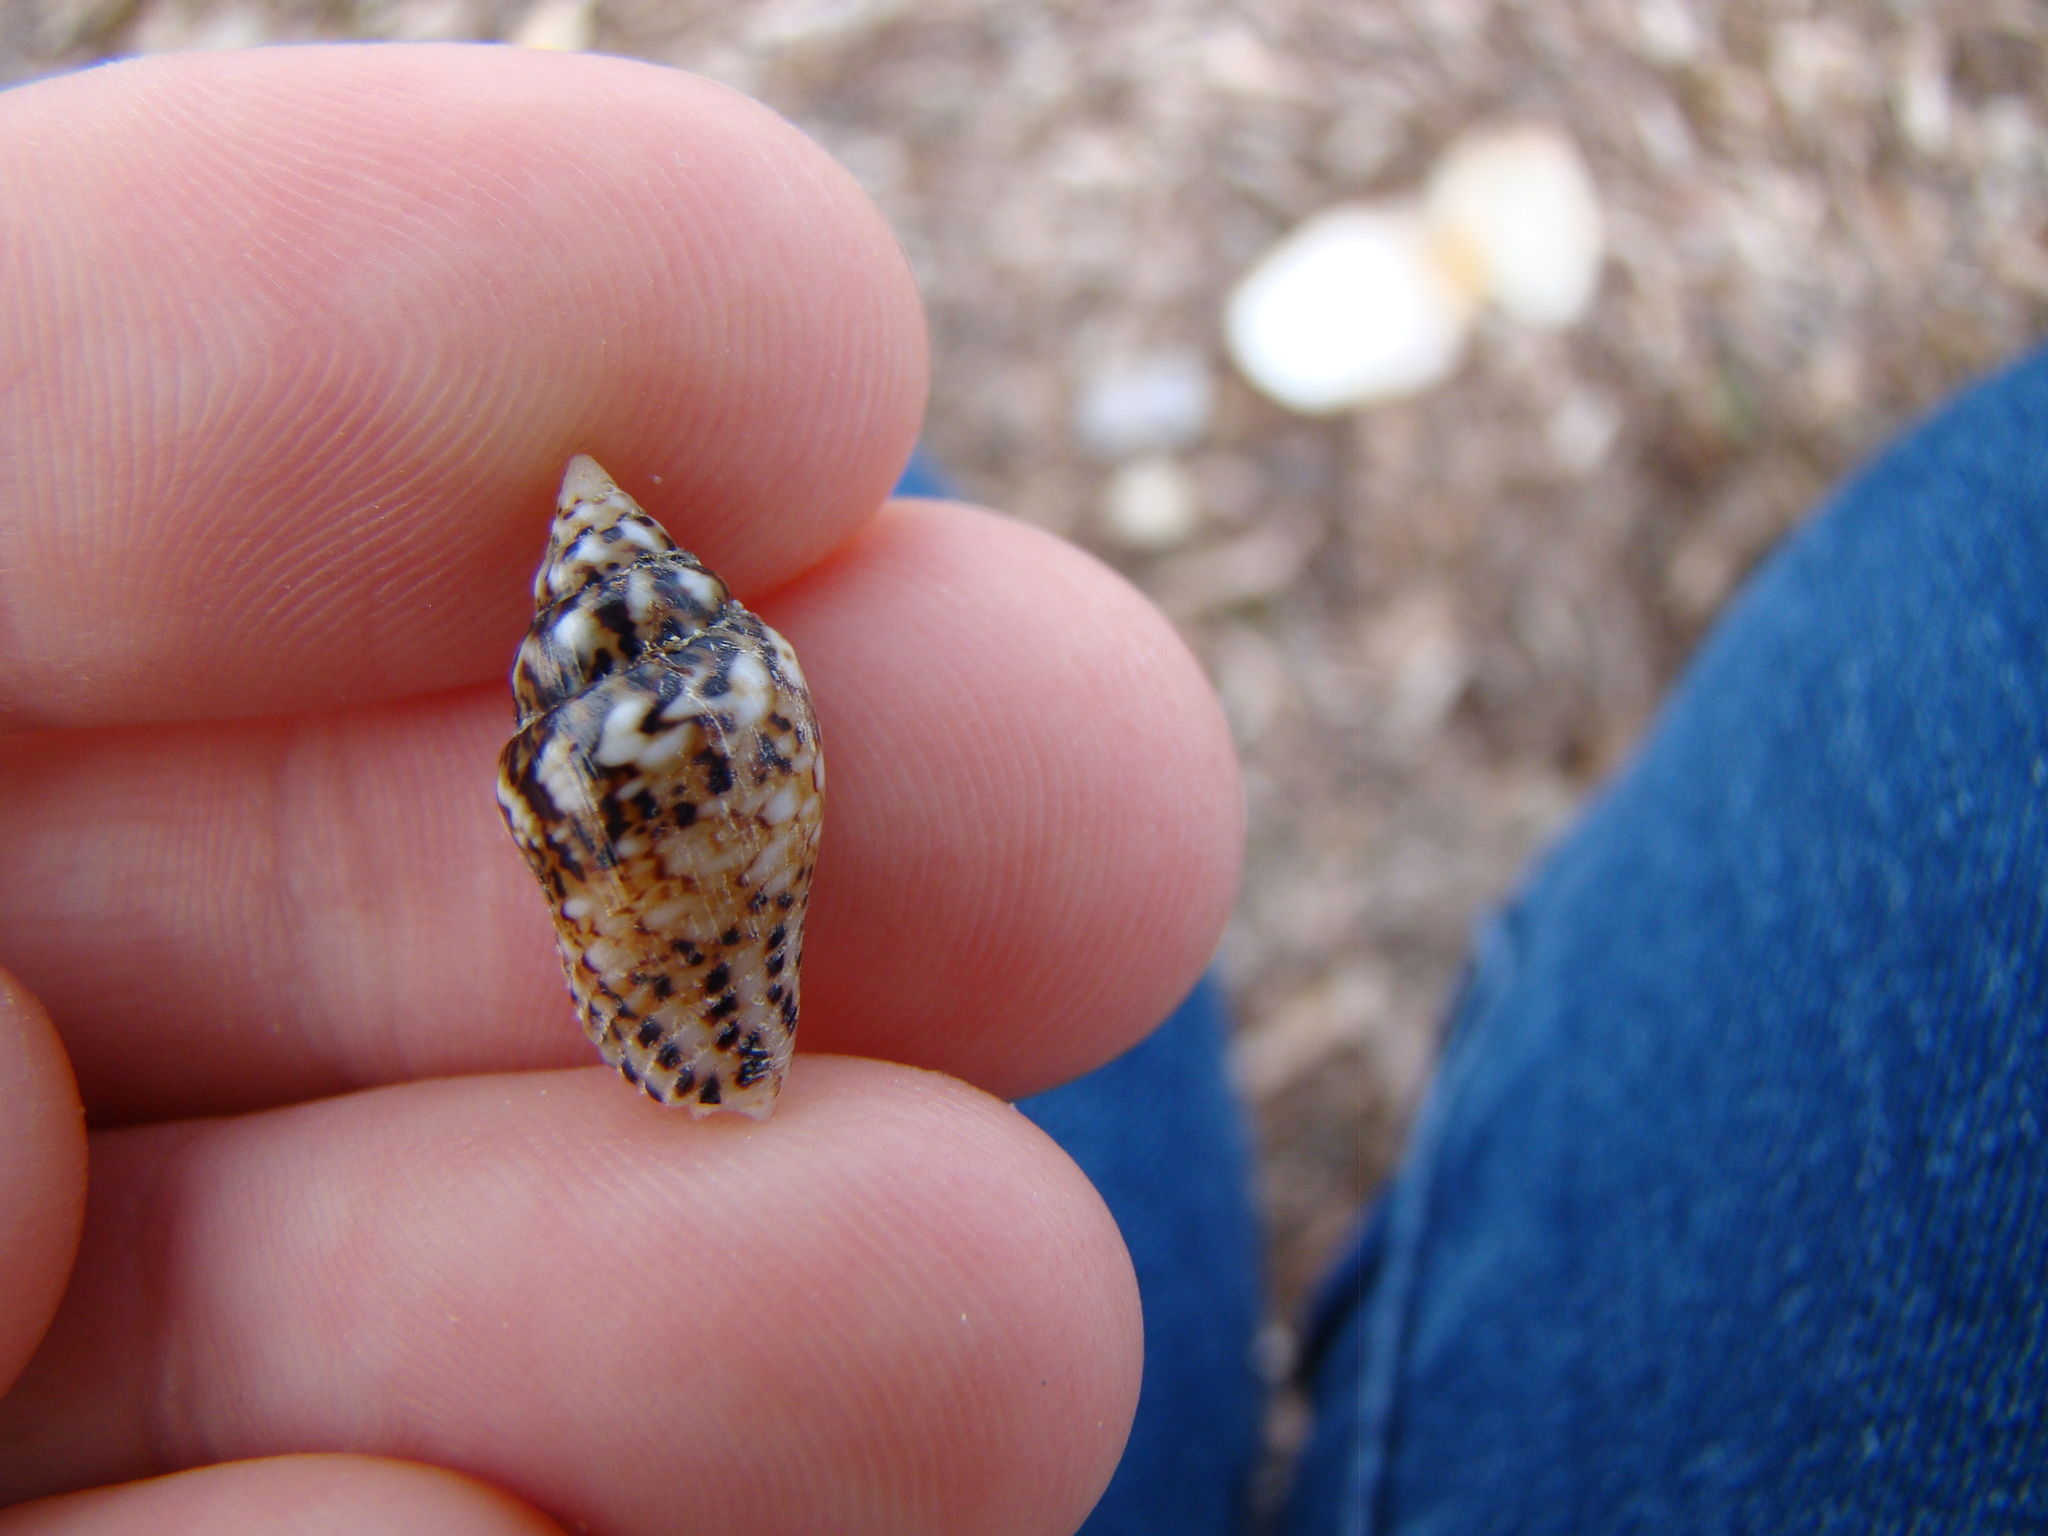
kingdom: Animalia
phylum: Mollusca
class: Gastropoda
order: Neogastropoda
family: Columbellidae
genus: Euplica
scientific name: Euplica scripta
